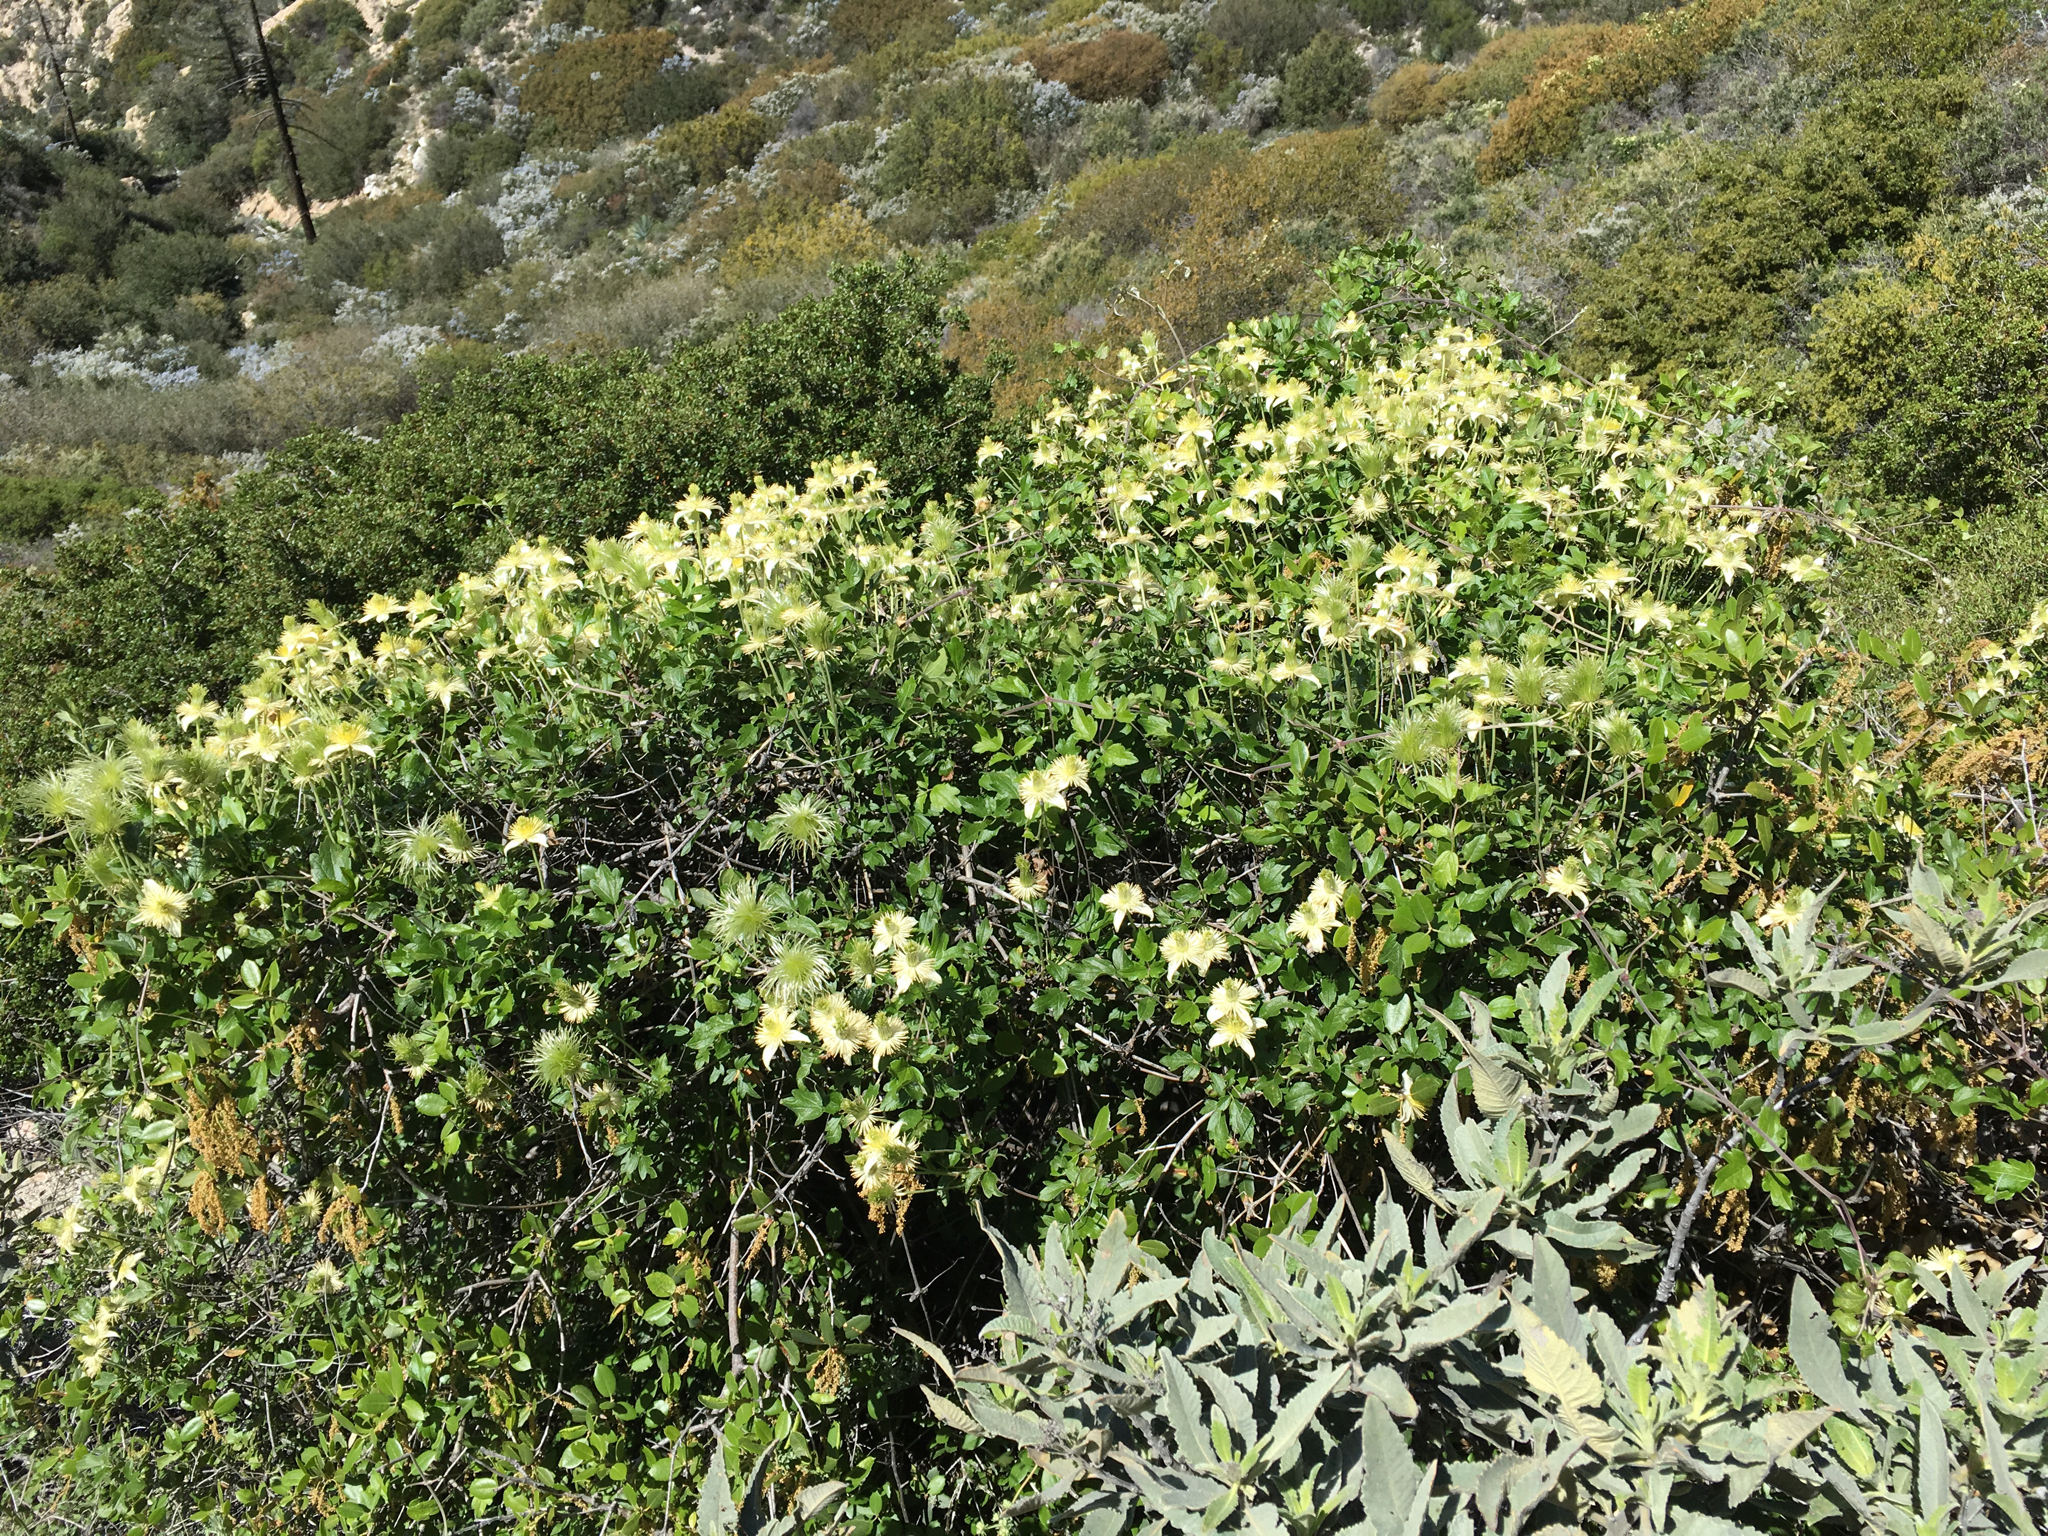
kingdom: Plantae
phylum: Tracheophyta
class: Magnoliopsida
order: Ranunculales
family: Ranunculaceae
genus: Clematis
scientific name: Clematis lasiantha
